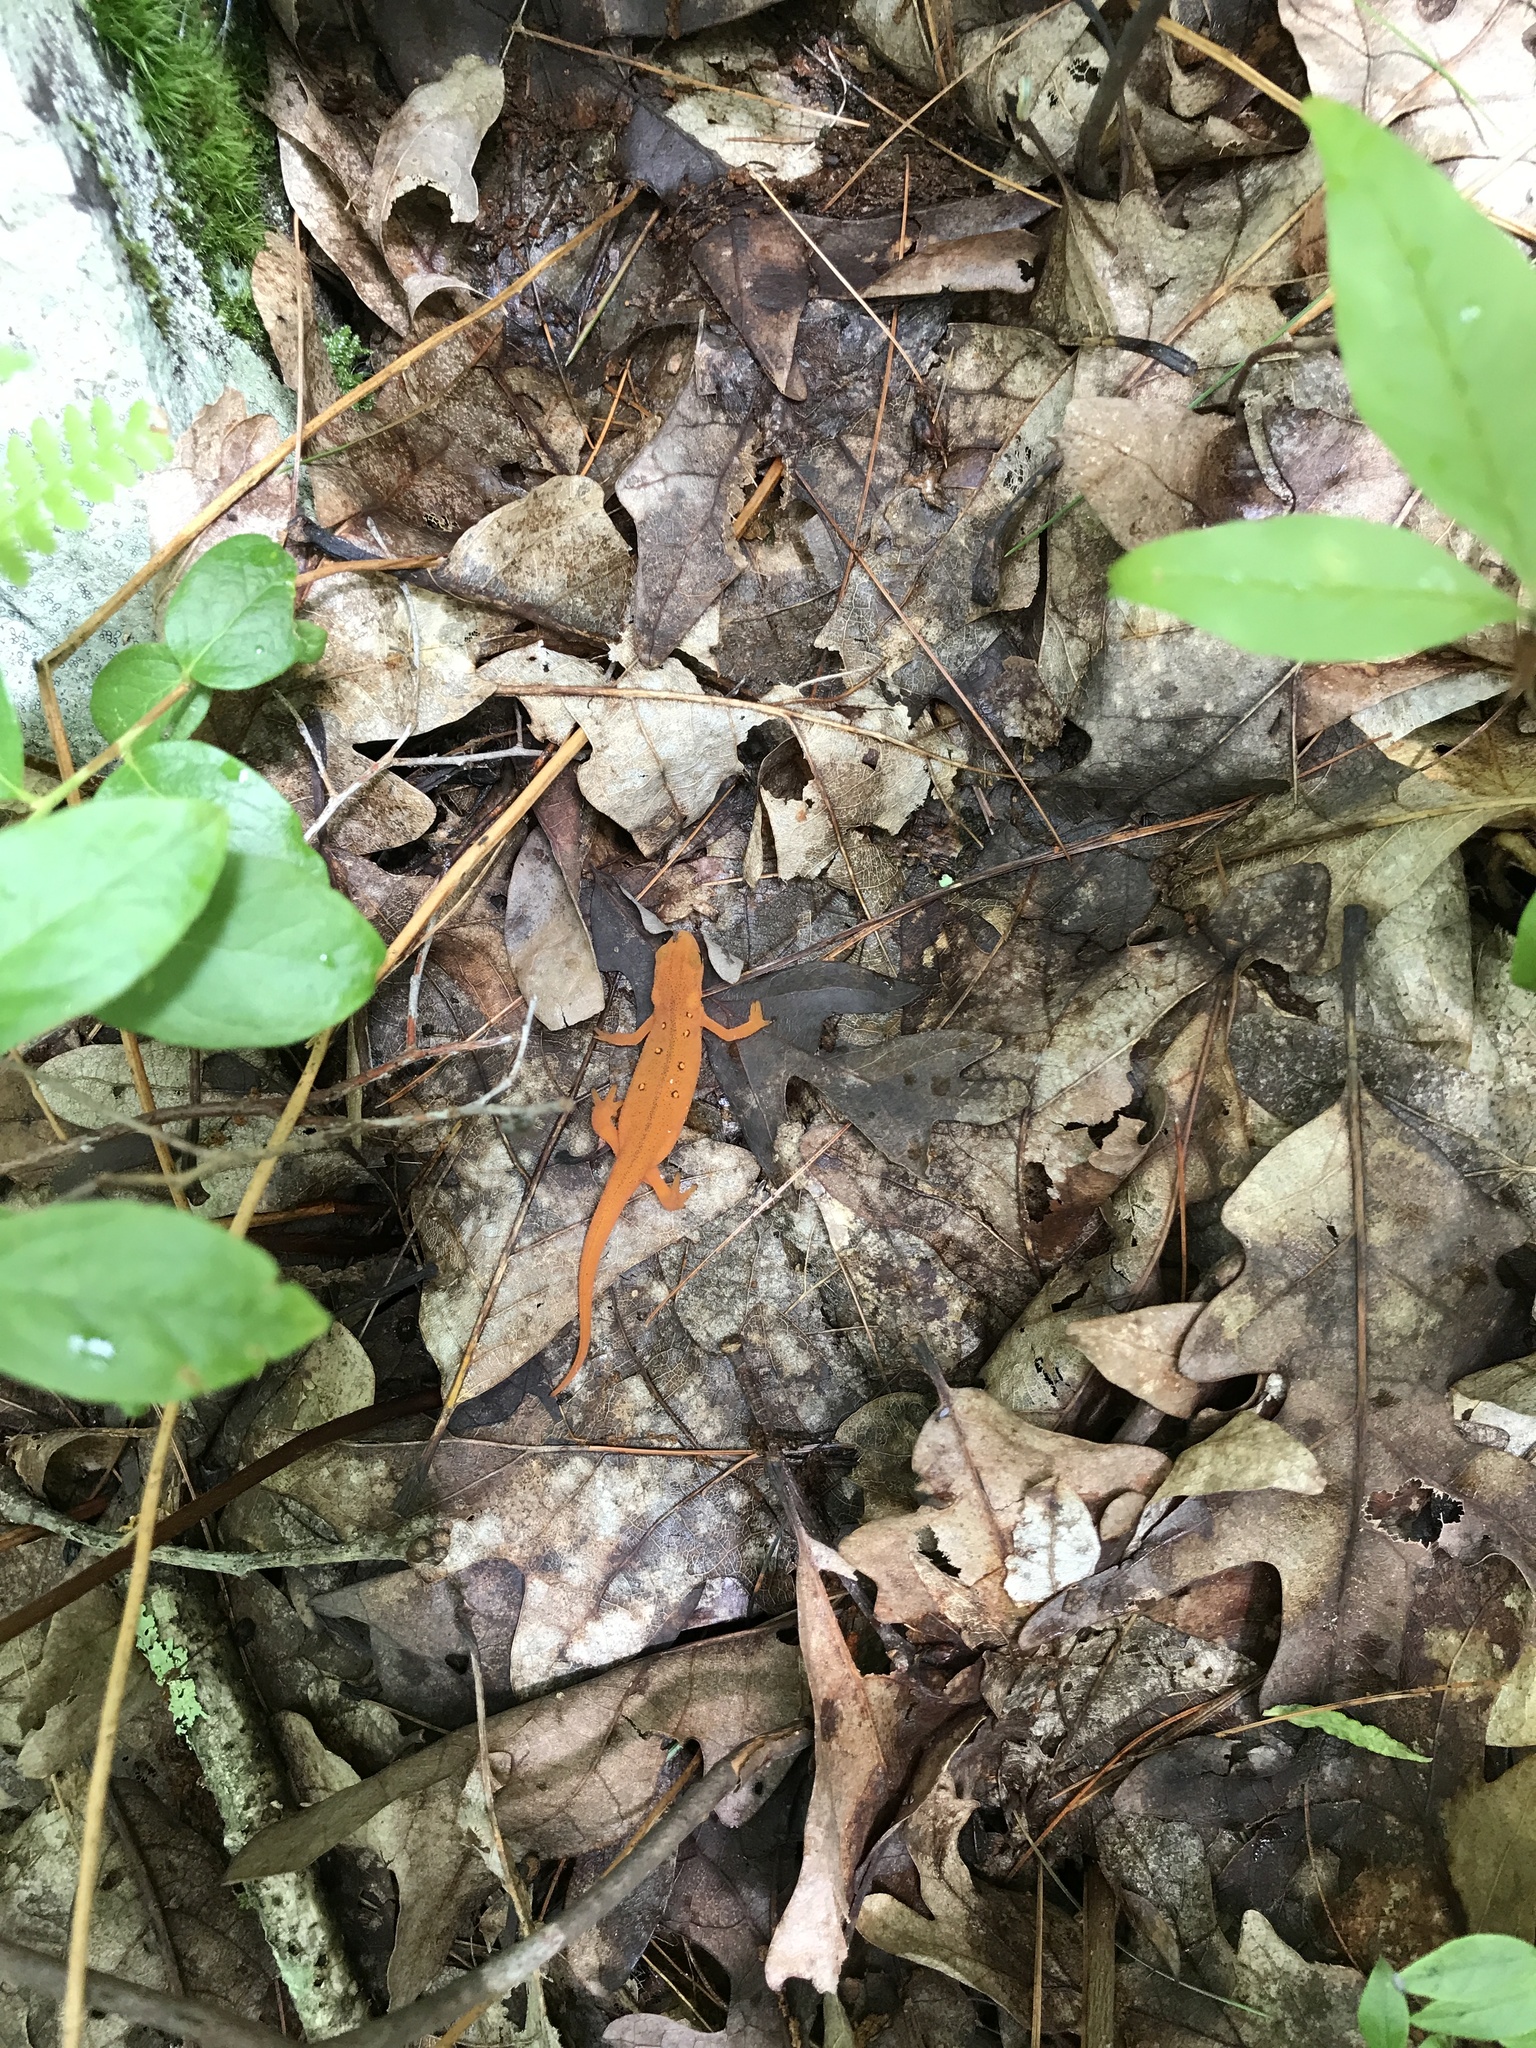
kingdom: Animalia
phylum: Chordata
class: Amphibia
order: Caudata
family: Salamandridae
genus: Notophthalmus
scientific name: Notophthalmus viridescens
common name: Eastern newt
